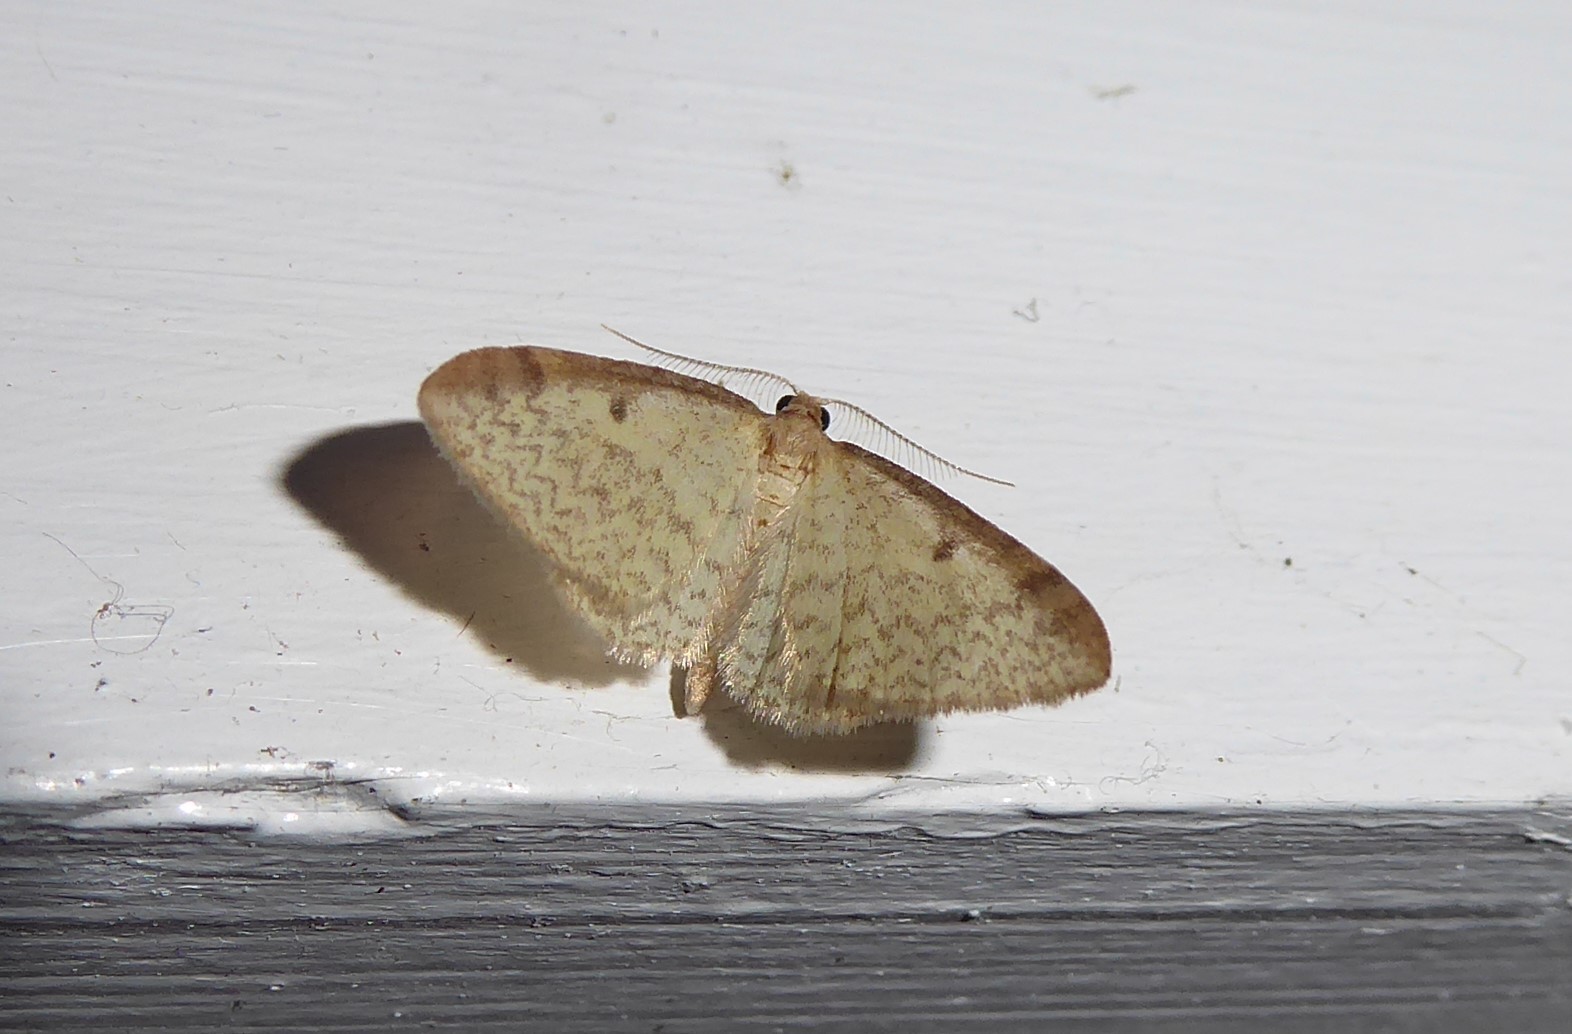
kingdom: Animalia
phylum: Arthropoda
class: Insecta
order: Lepidoptera
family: Geometridae
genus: Epiphryne
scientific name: Epiphryne undosata
